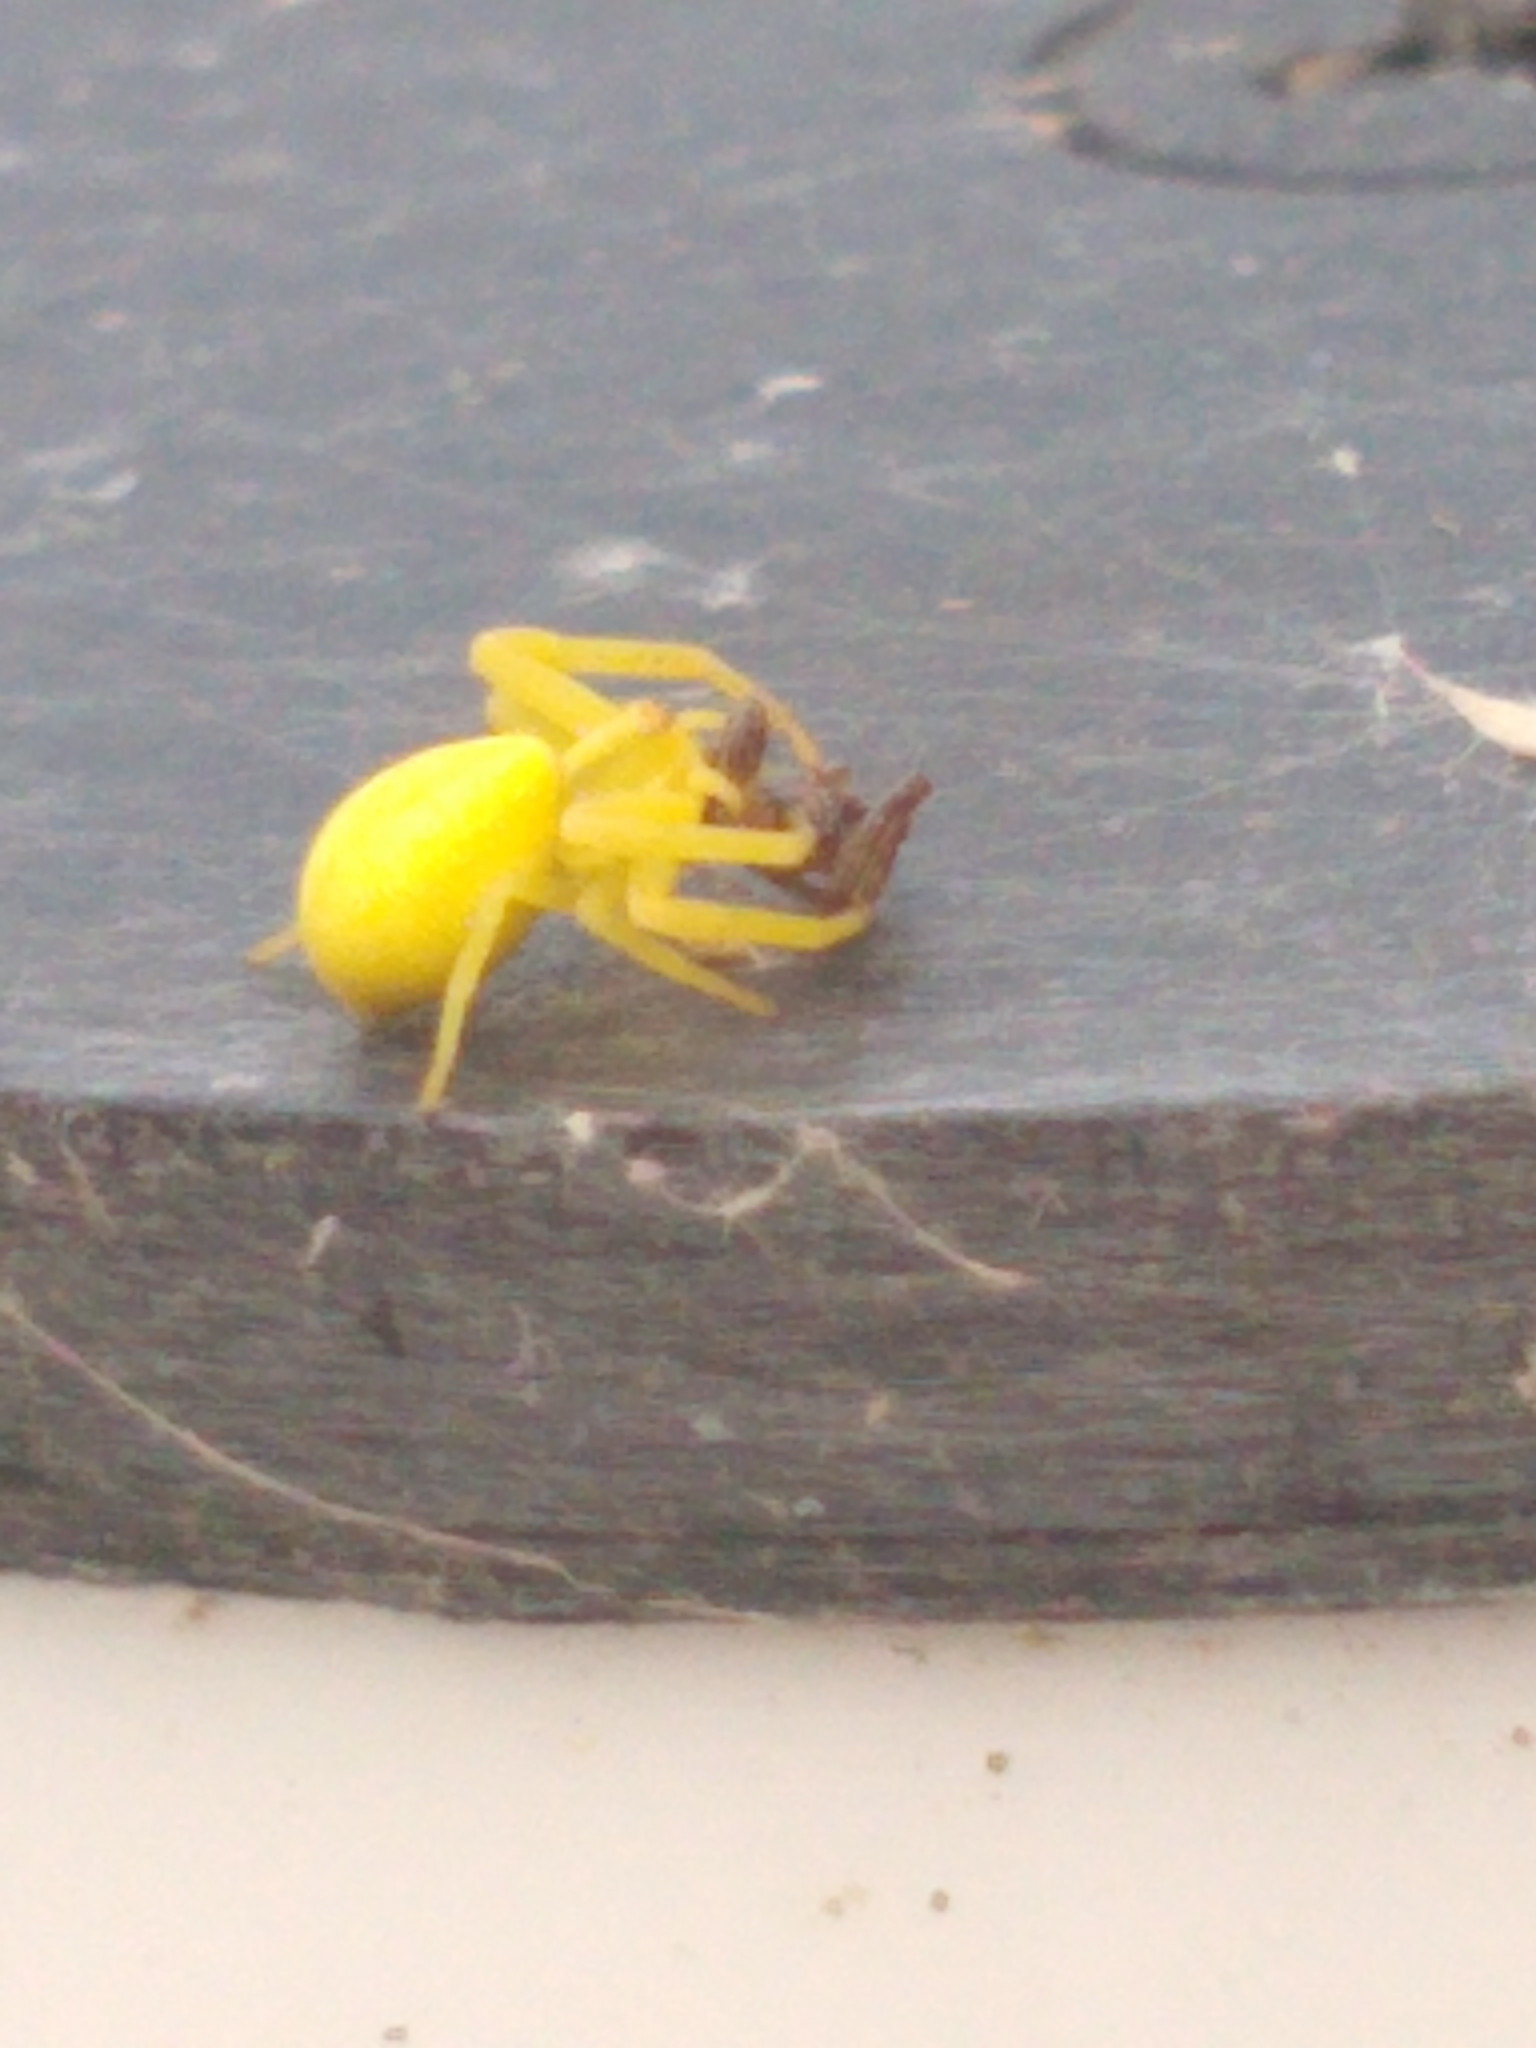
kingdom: Animalia
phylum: Arthropoda
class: Arachnida
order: Araneae
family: Thomisidae
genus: Misumena
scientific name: Misumena vatia
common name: Goldenrod crab spider
